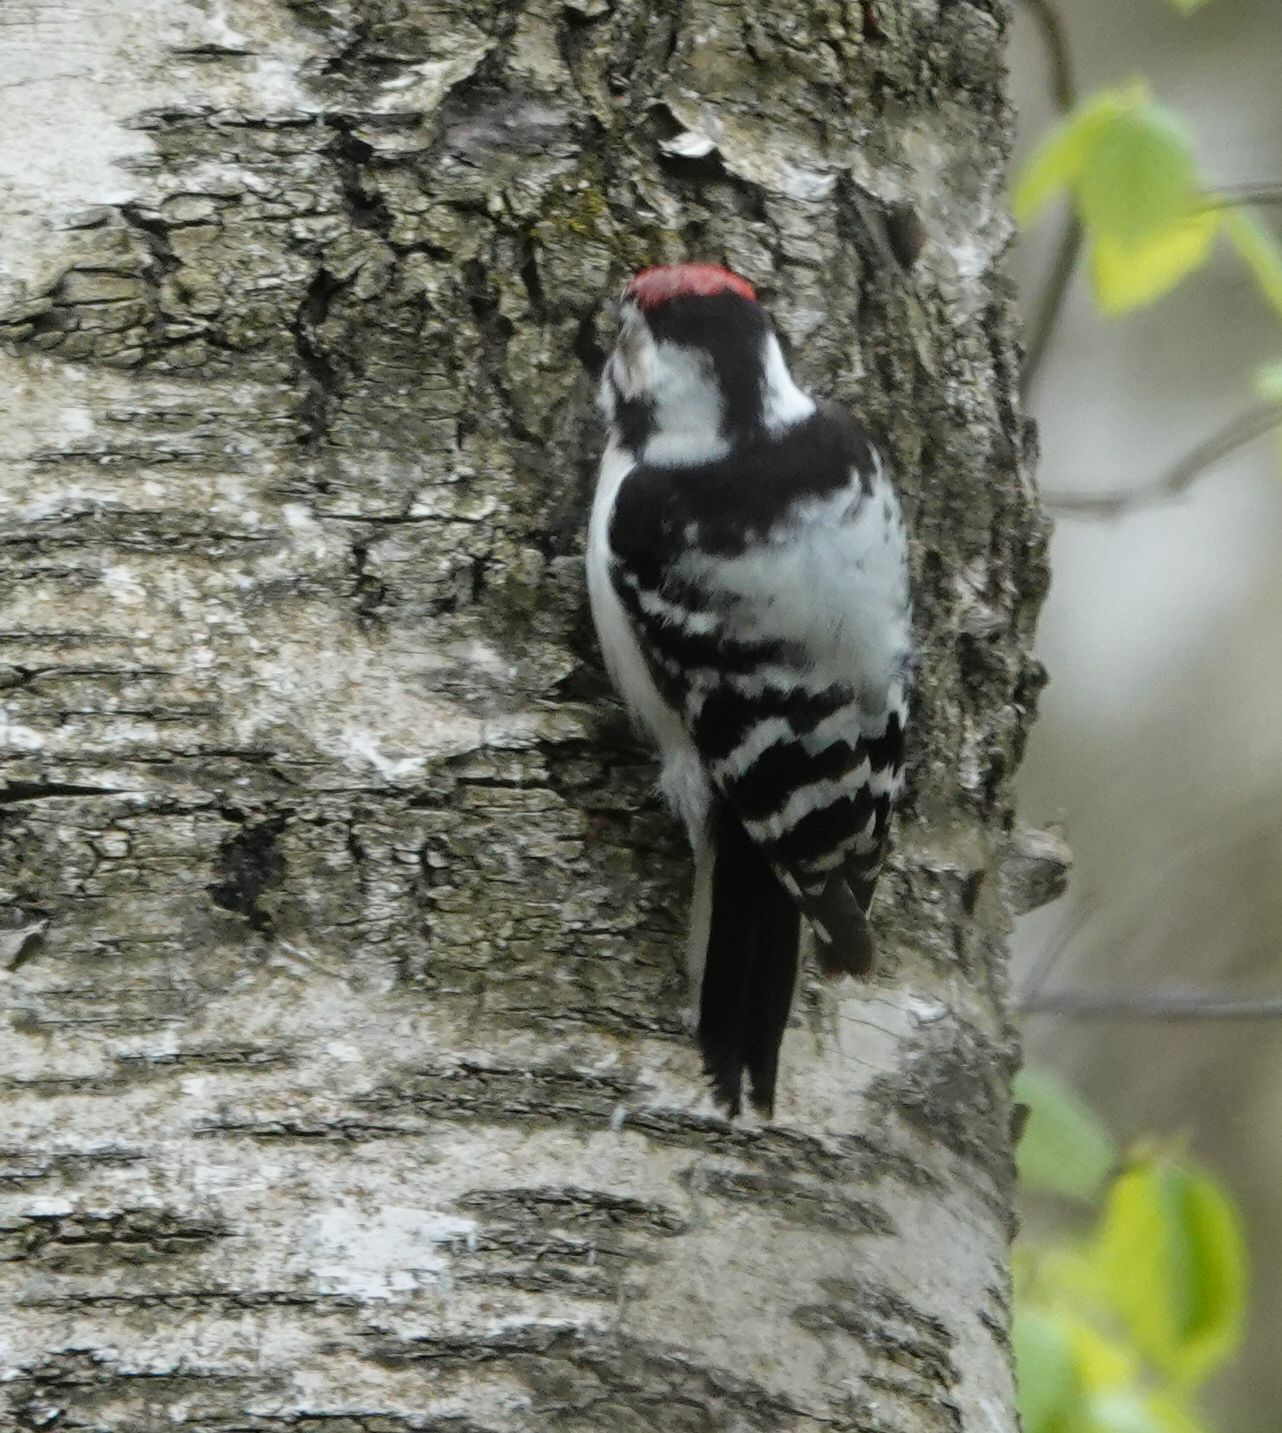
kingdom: Animalia
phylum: Chordata
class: Aves
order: Piciformes
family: Picidae
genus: Dryobates
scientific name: Dryobates minor
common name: Lesser spotted woodpecker
